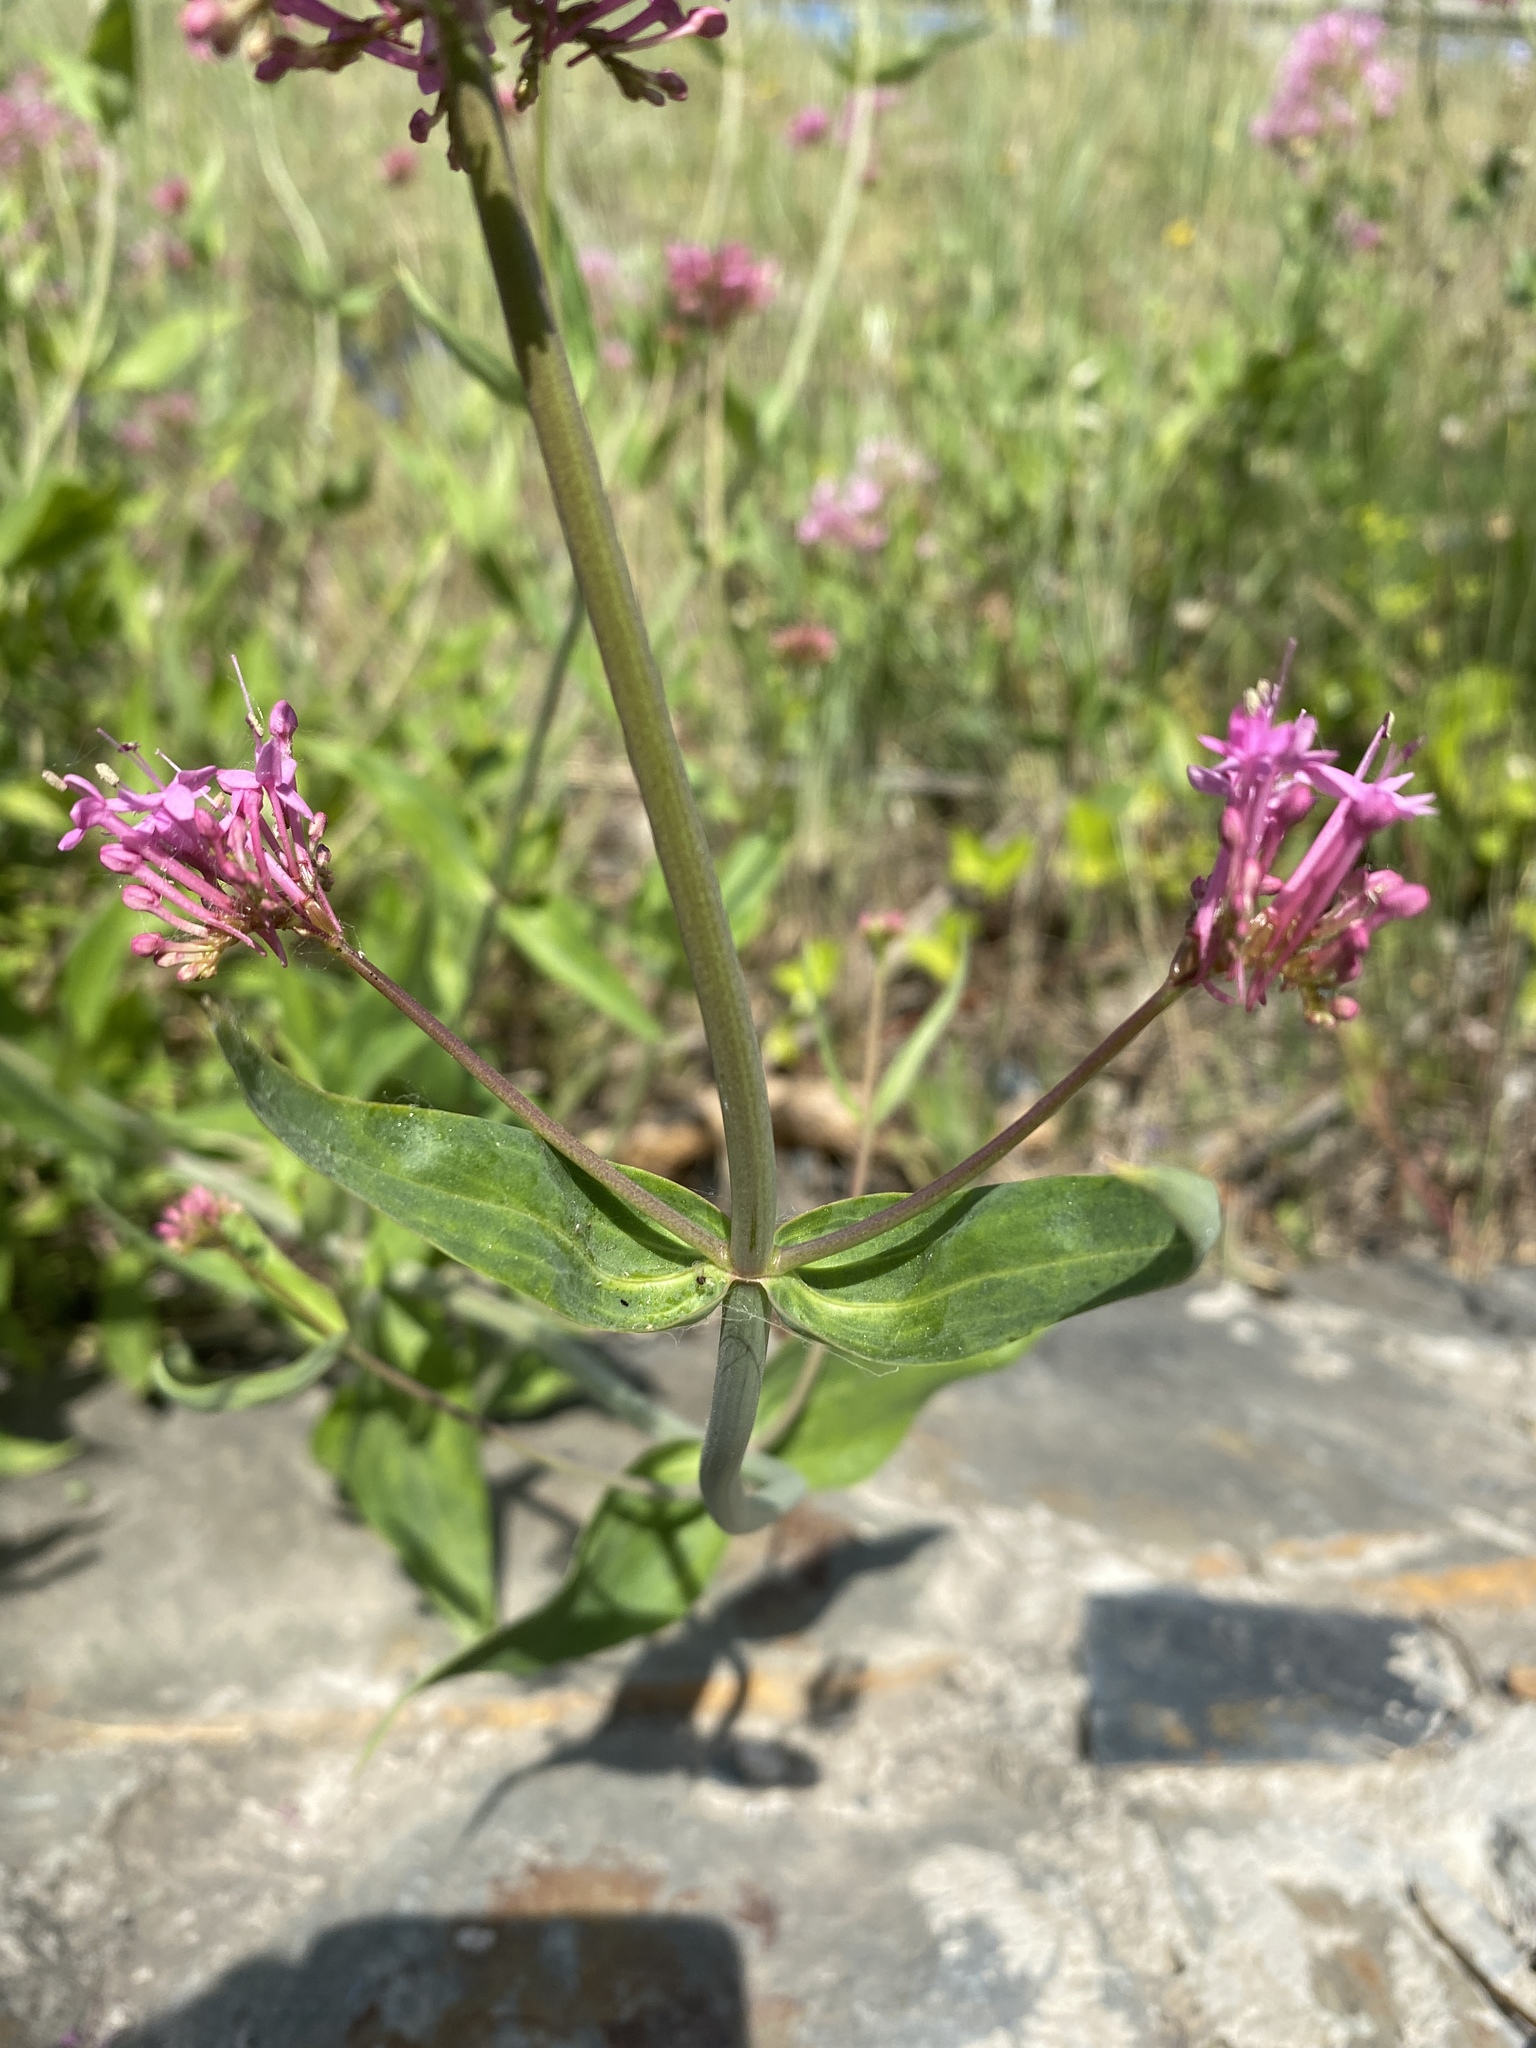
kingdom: Plantae
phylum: Tracheophyta
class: Magnoliopsida
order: Dipsacales
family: Caprifoliaceae
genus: Centranthus
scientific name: Centranthus ruber
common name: Red valerian
